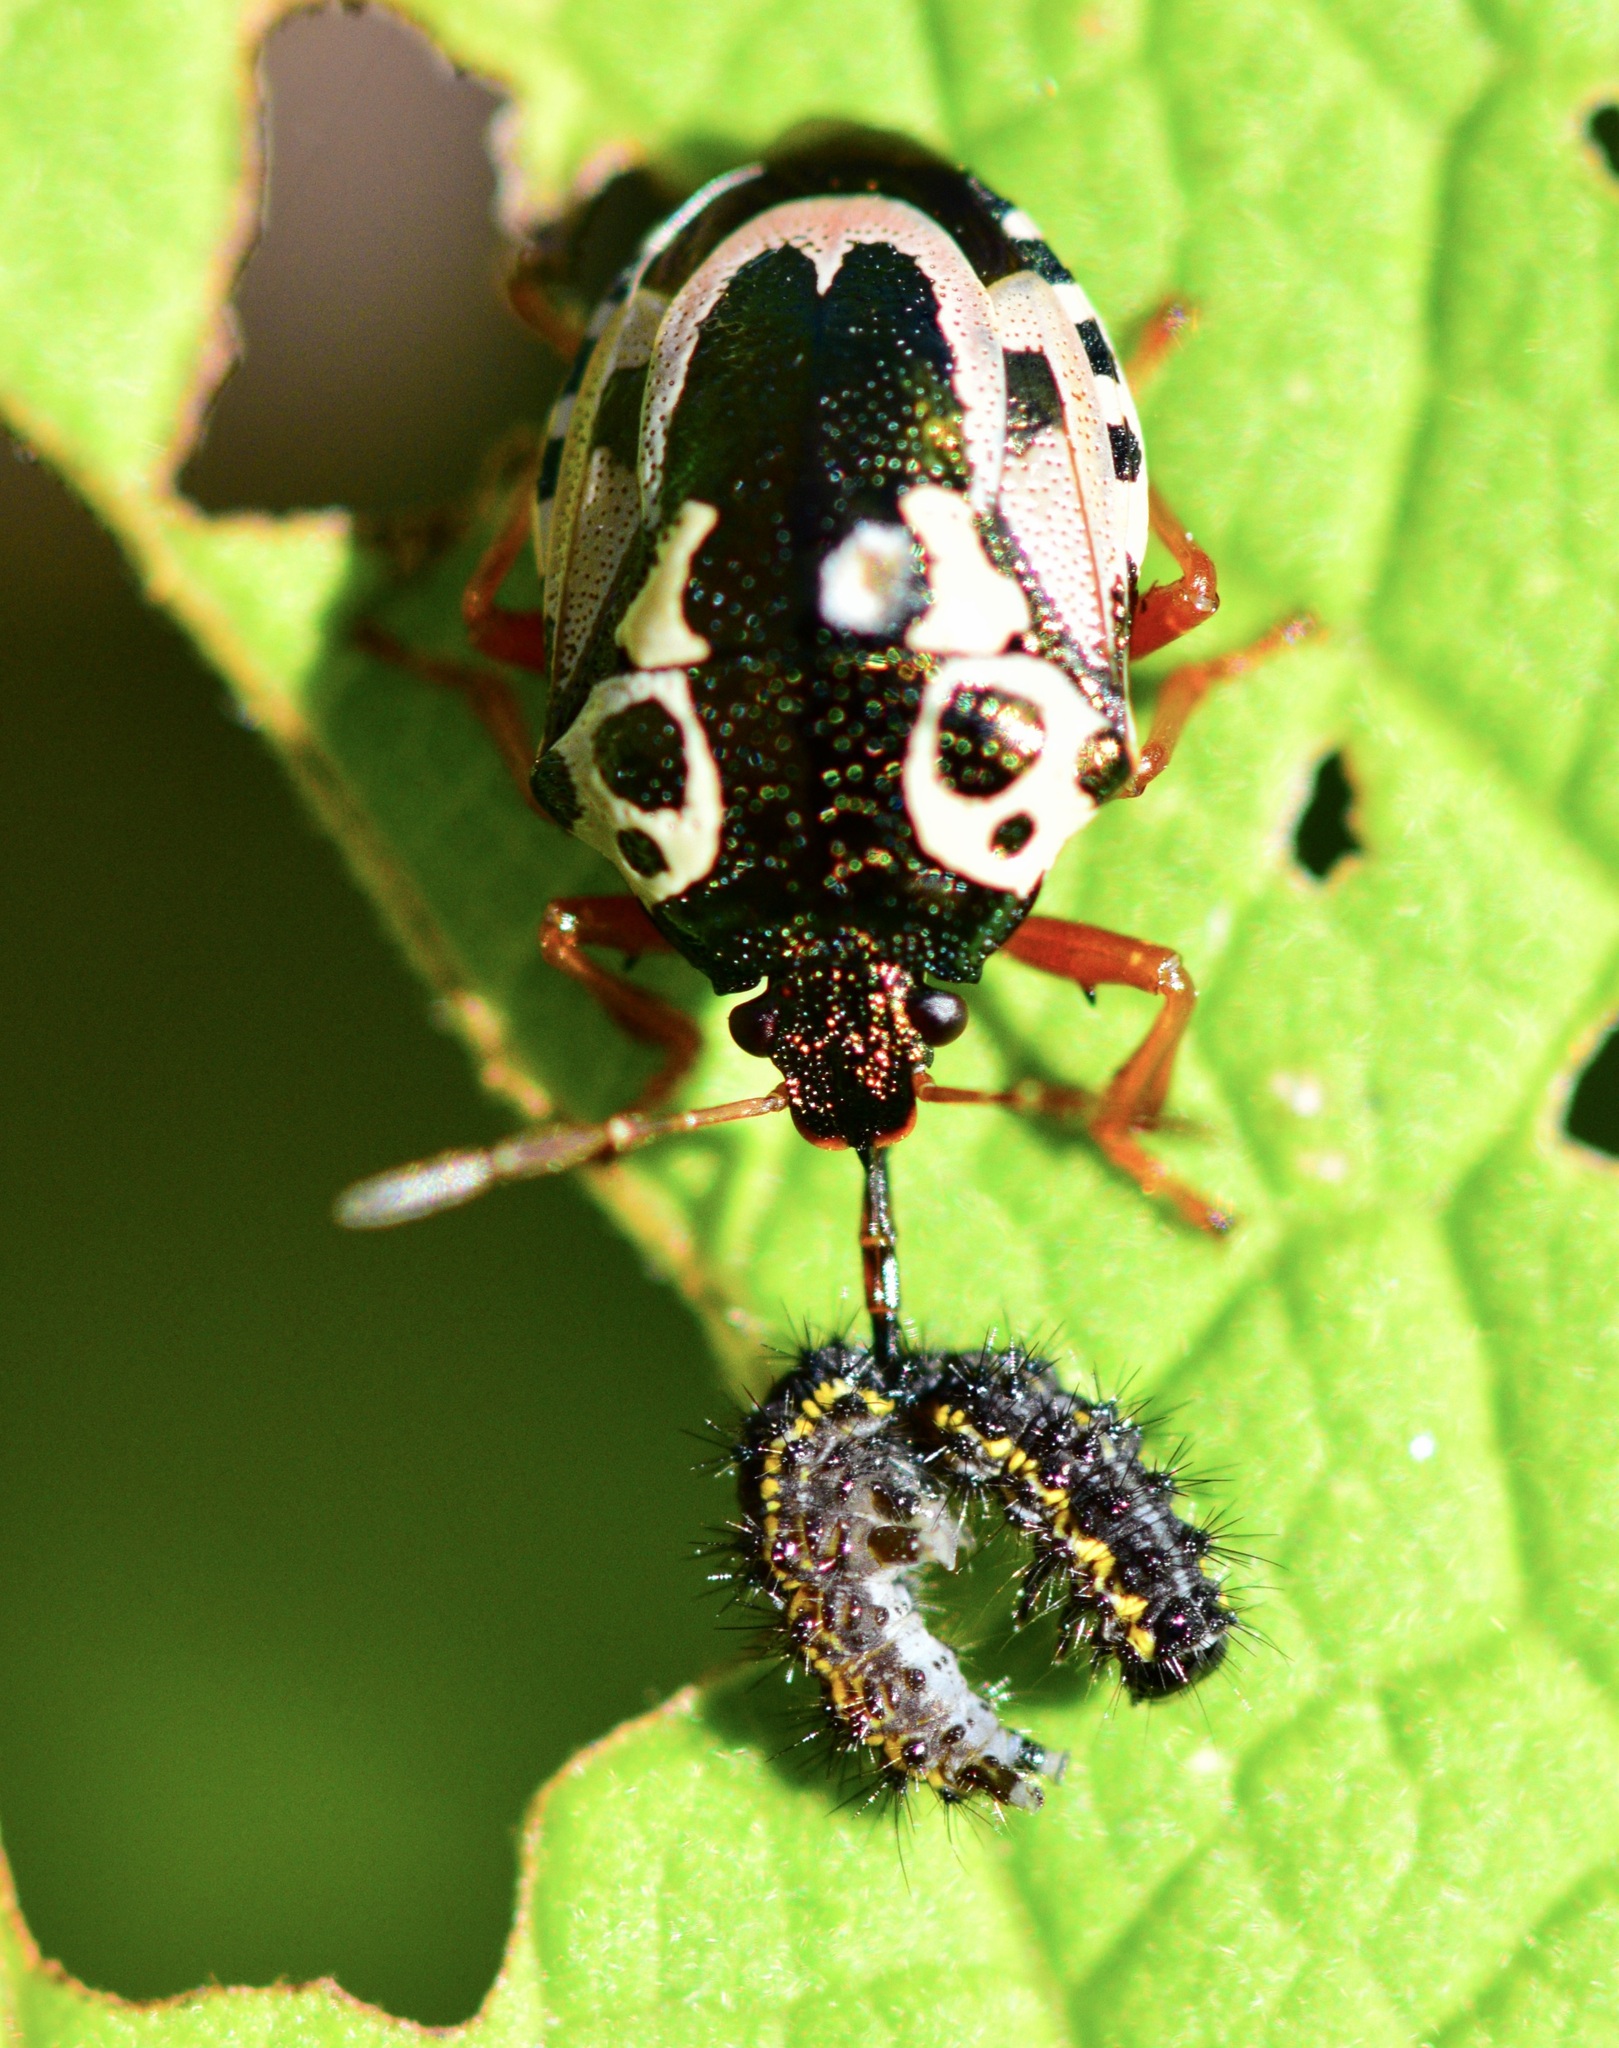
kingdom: Animalia
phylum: Arthropoda
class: Insecta
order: Hemiptera
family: Pentatomidae
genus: Stiretrus
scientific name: Stiretrus anchorago
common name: Anchor stink bug
